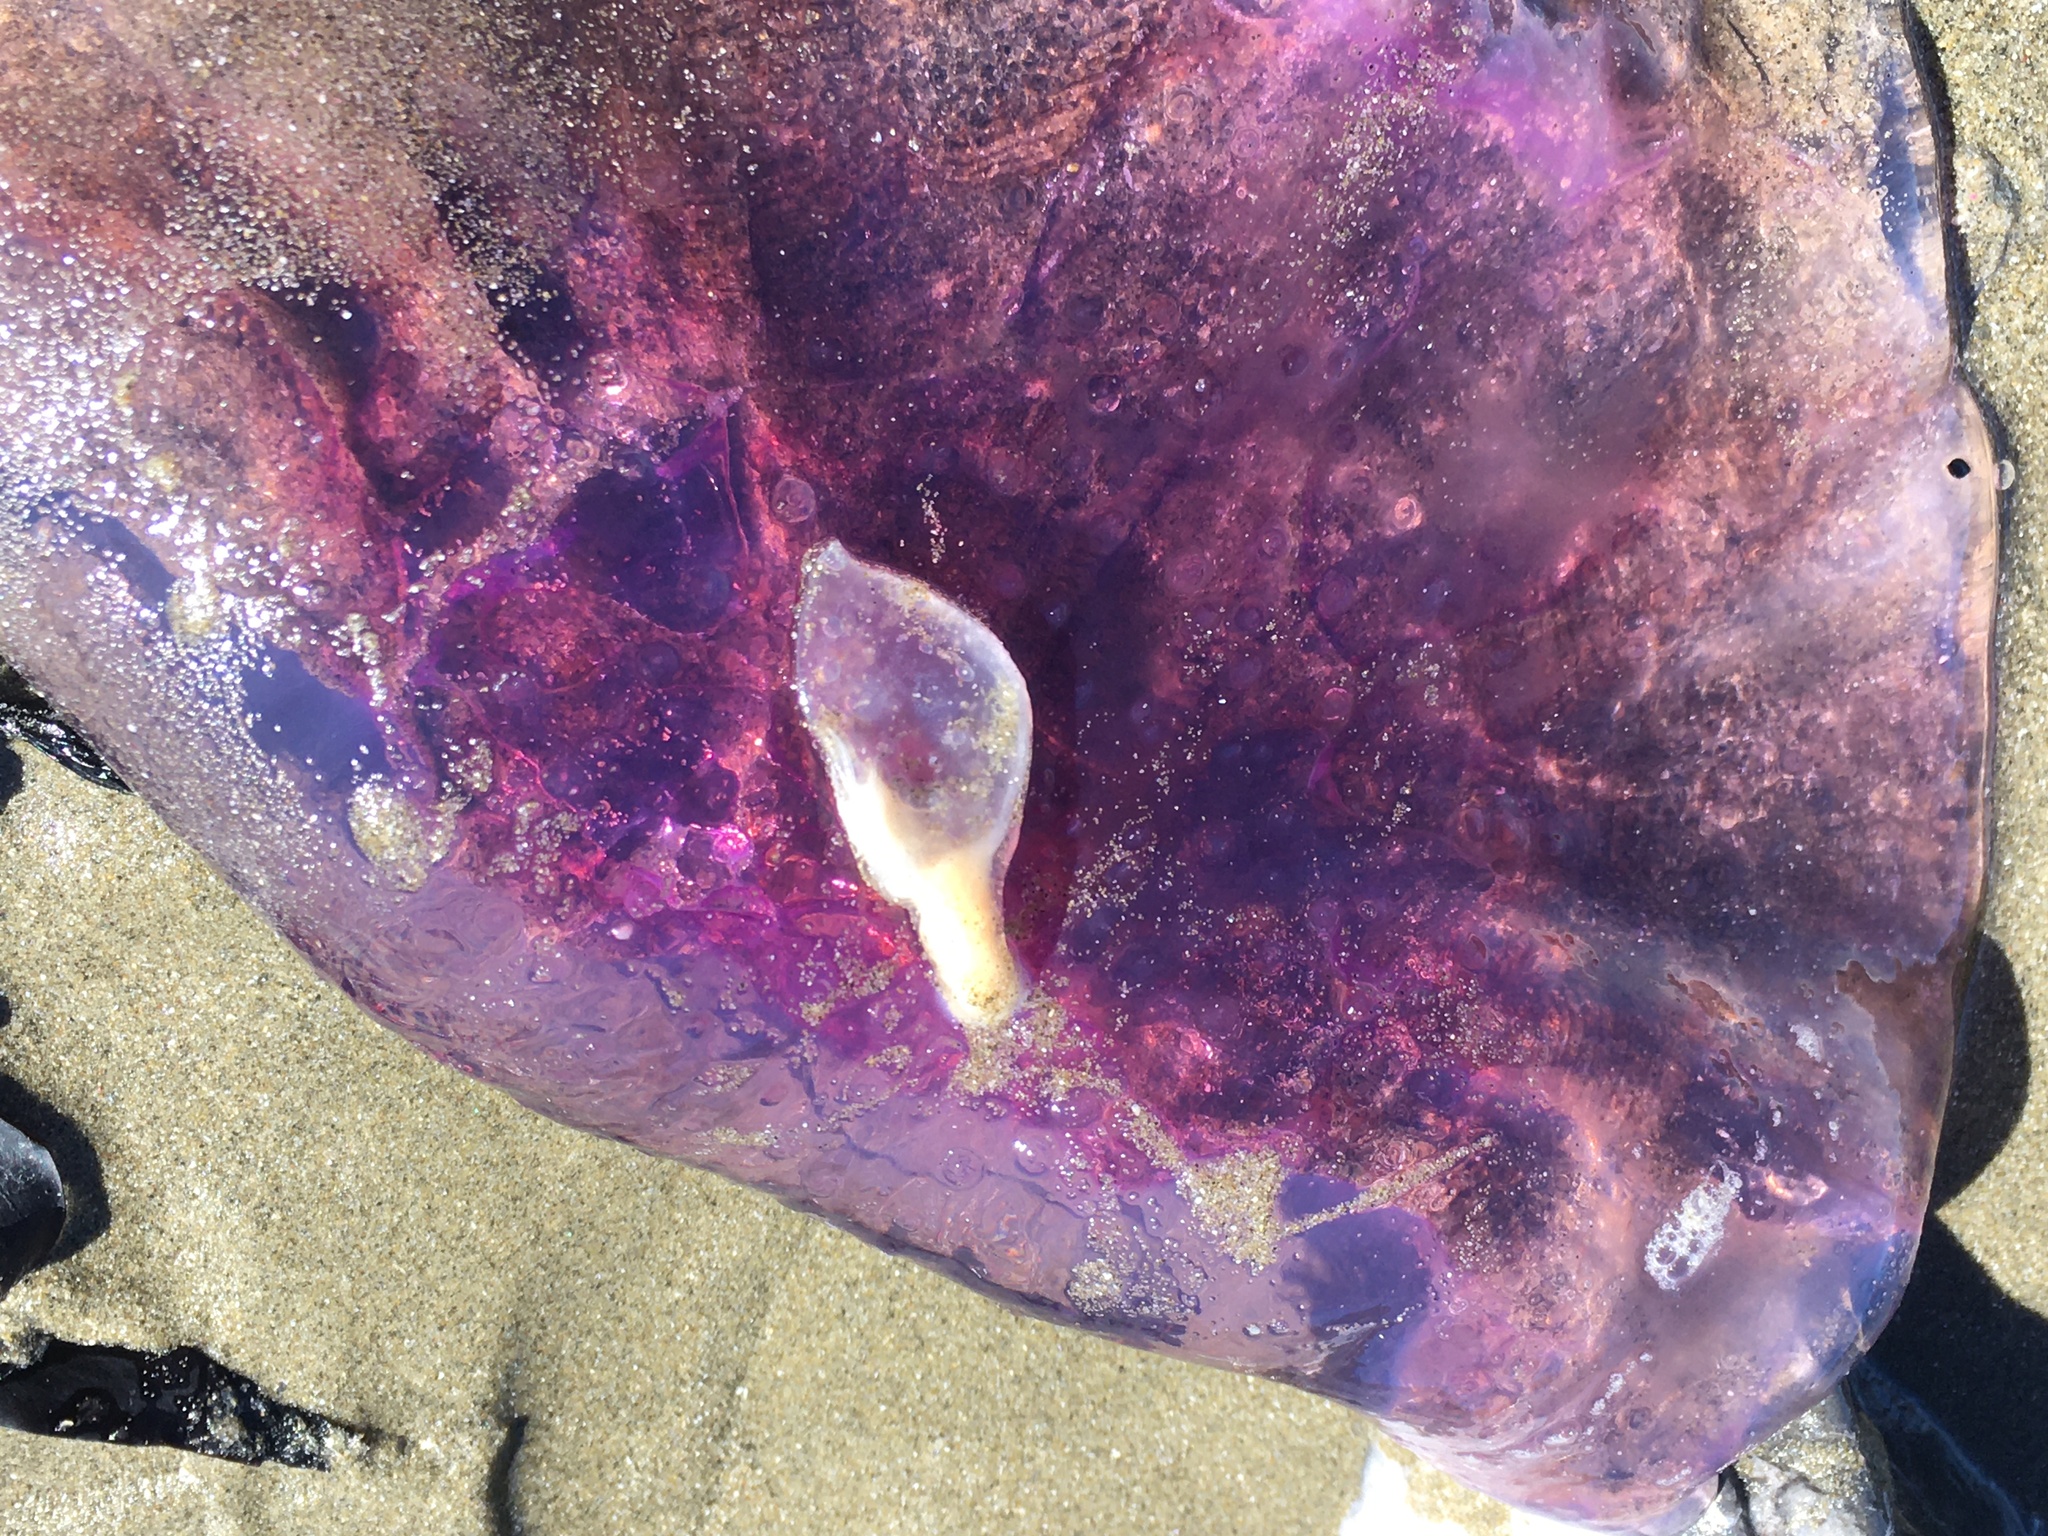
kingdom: Animalia
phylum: Arthropoda
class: Maxillopoda
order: Pedunculata
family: Lepadidae
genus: Alepas
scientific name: Alepas pacifica
